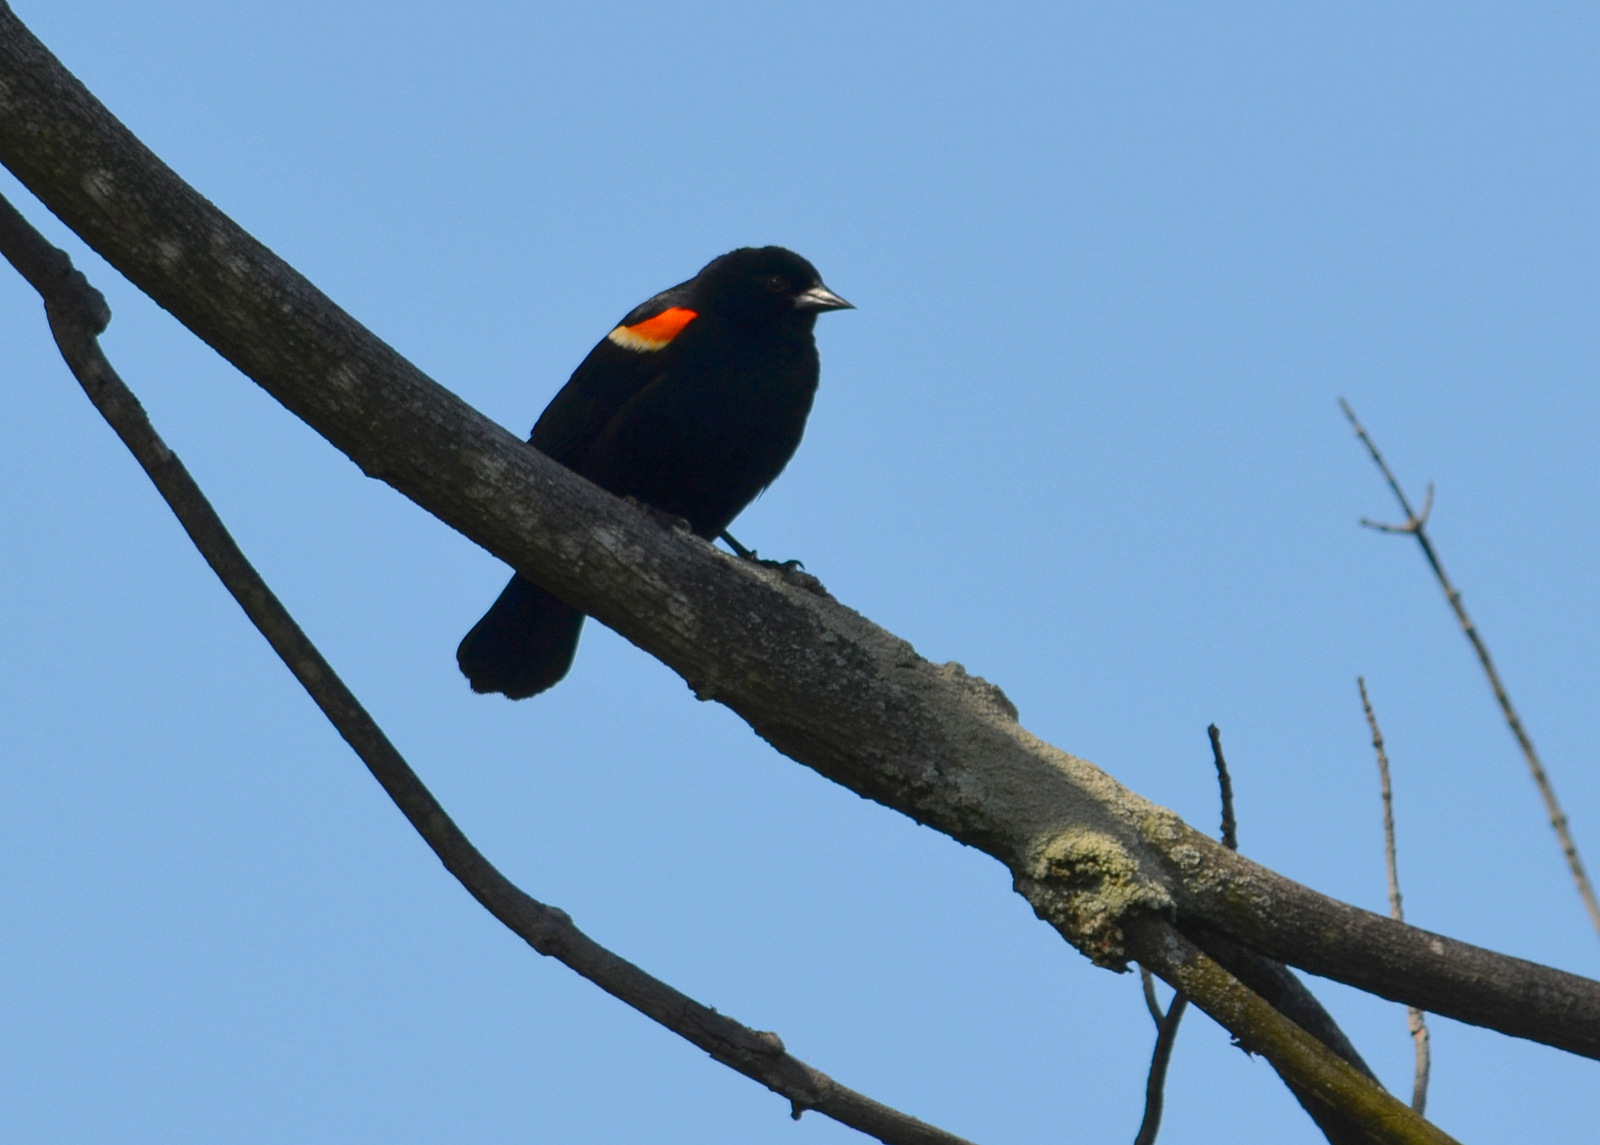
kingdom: Animalia
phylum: Chordata
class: Aves
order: Passeriformes
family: Icteridae
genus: Agelaius
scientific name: Agelaius phoeniceus
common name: Red-winged blackbird
